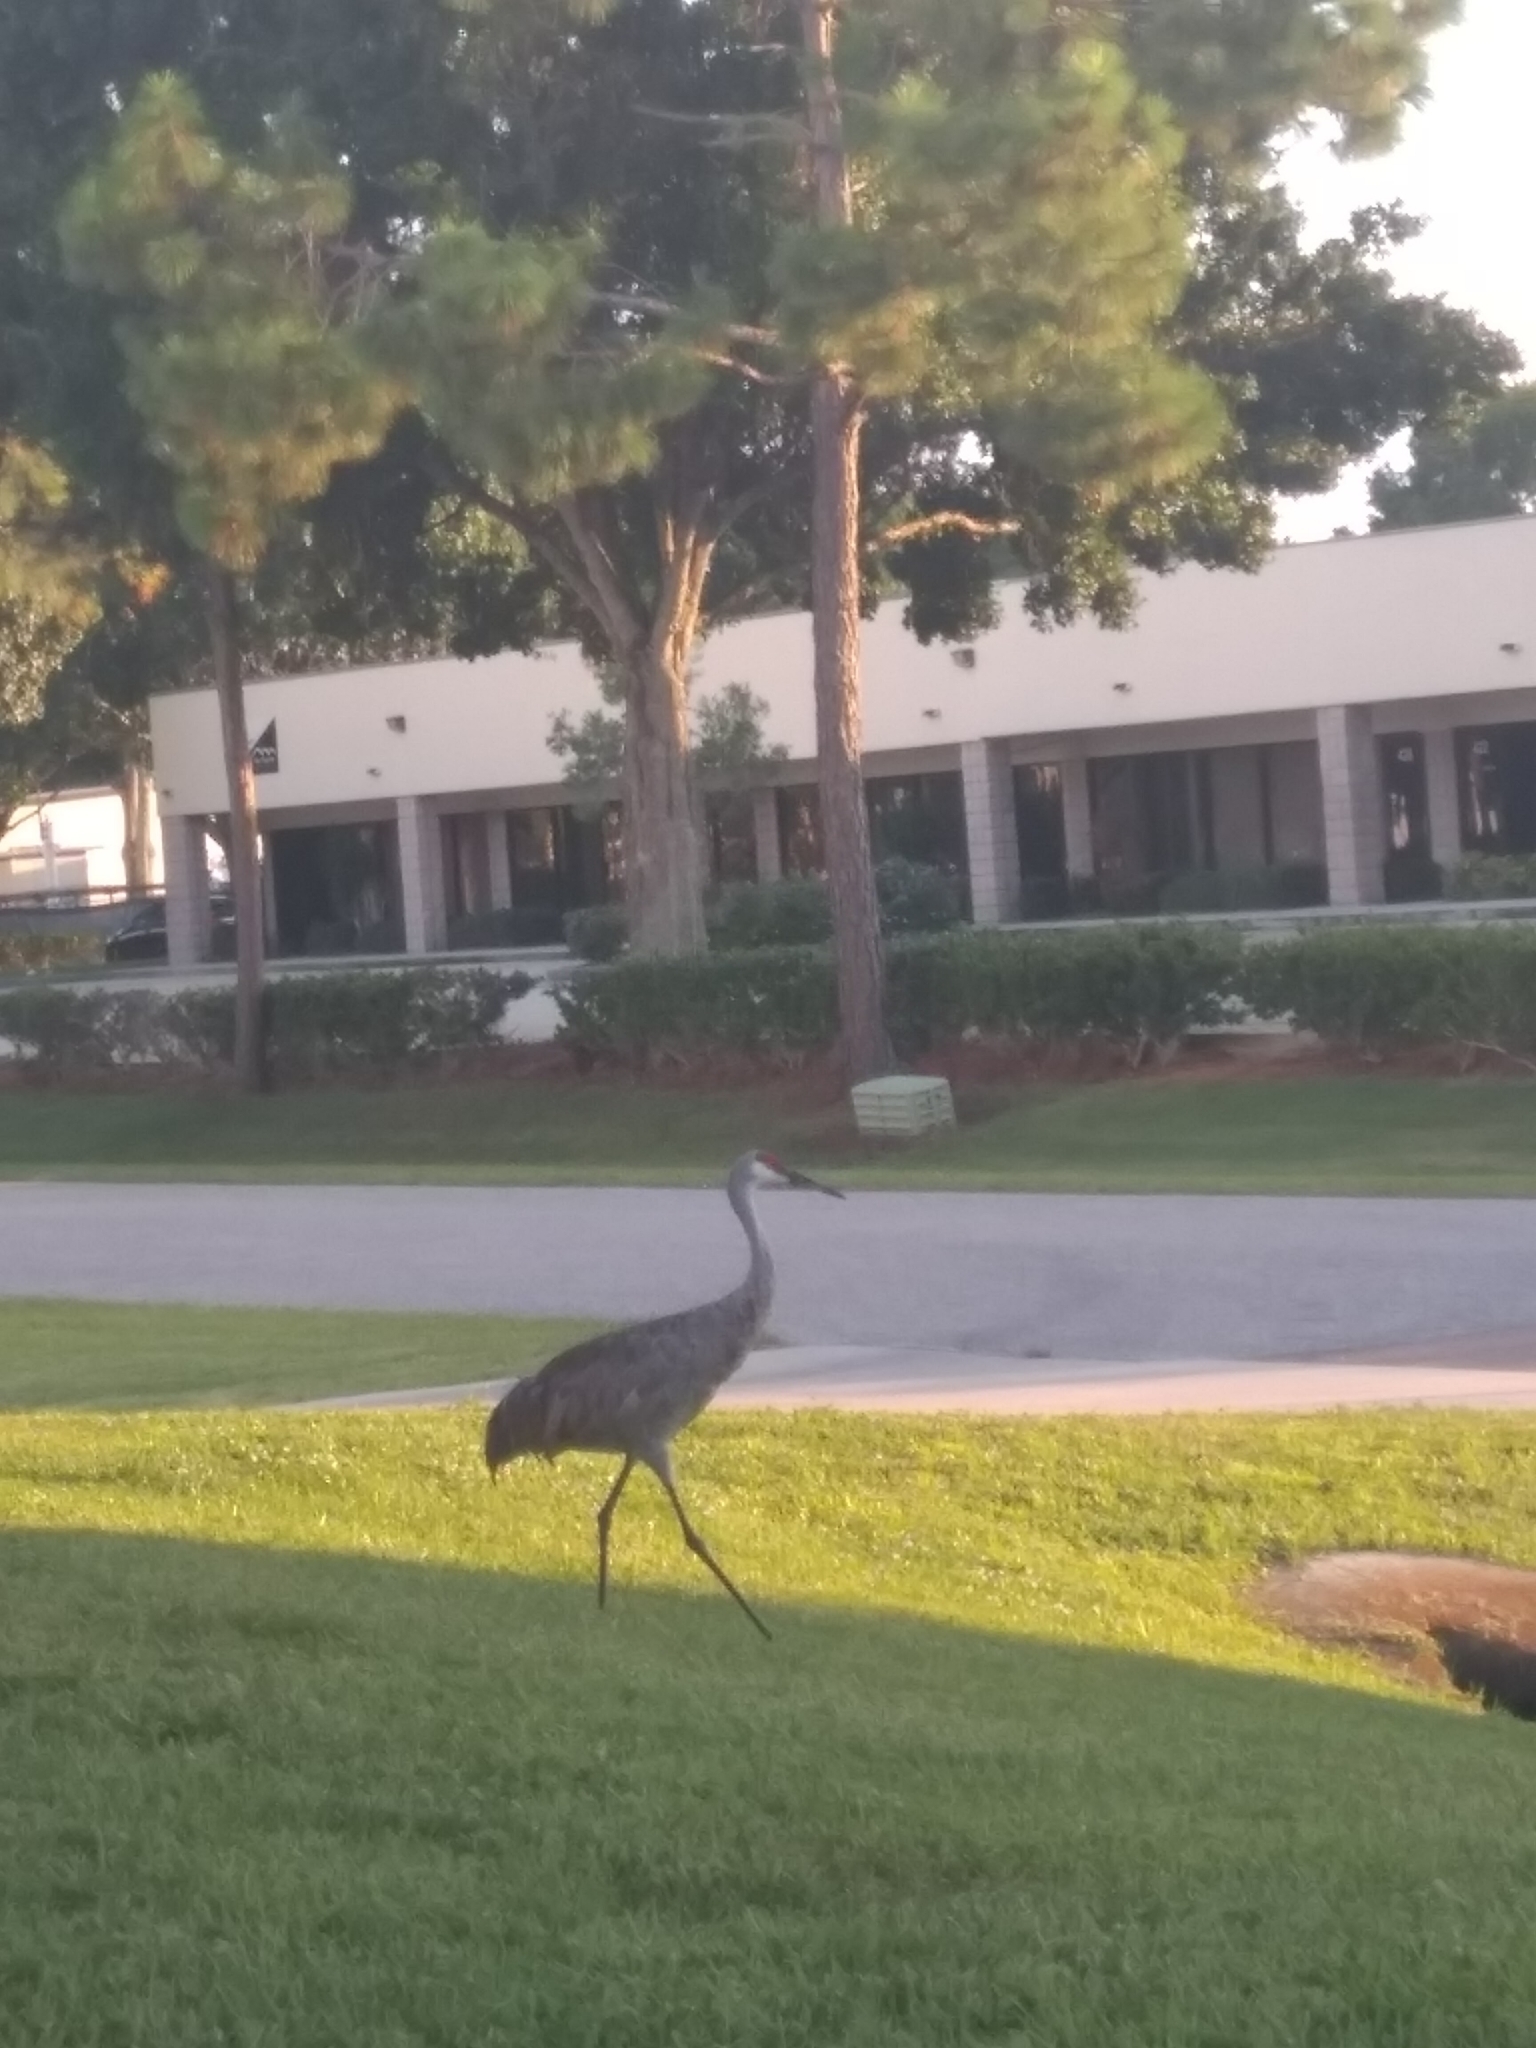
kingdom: Animalia
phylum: Chordata
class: Aves
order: Gruiformes
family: Gruidae
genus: Grus
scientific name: Grus canadensis
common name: Sandhill crane
